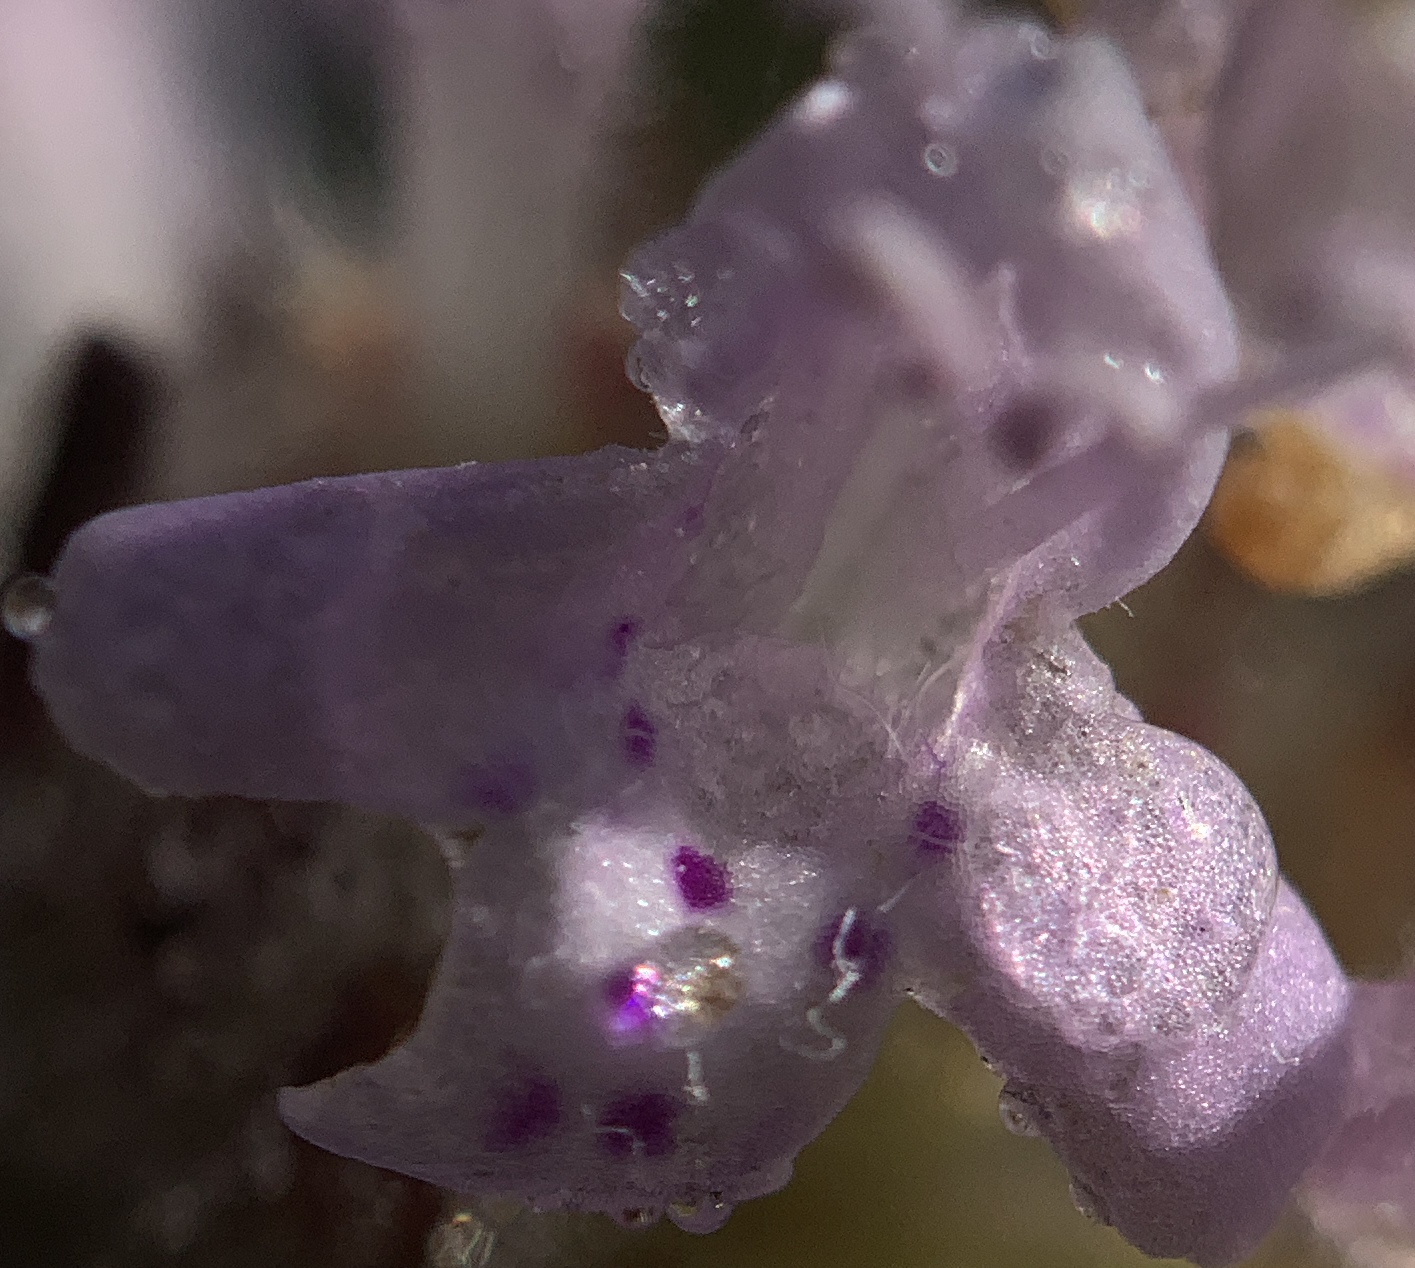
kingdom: Plantae
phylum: Tracheophyta
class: Magnoliopsida
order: Lamiales
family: Lamiaceae
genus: Piloblephis
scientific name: Piloblephis rigida
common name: Wild pennyroyal
